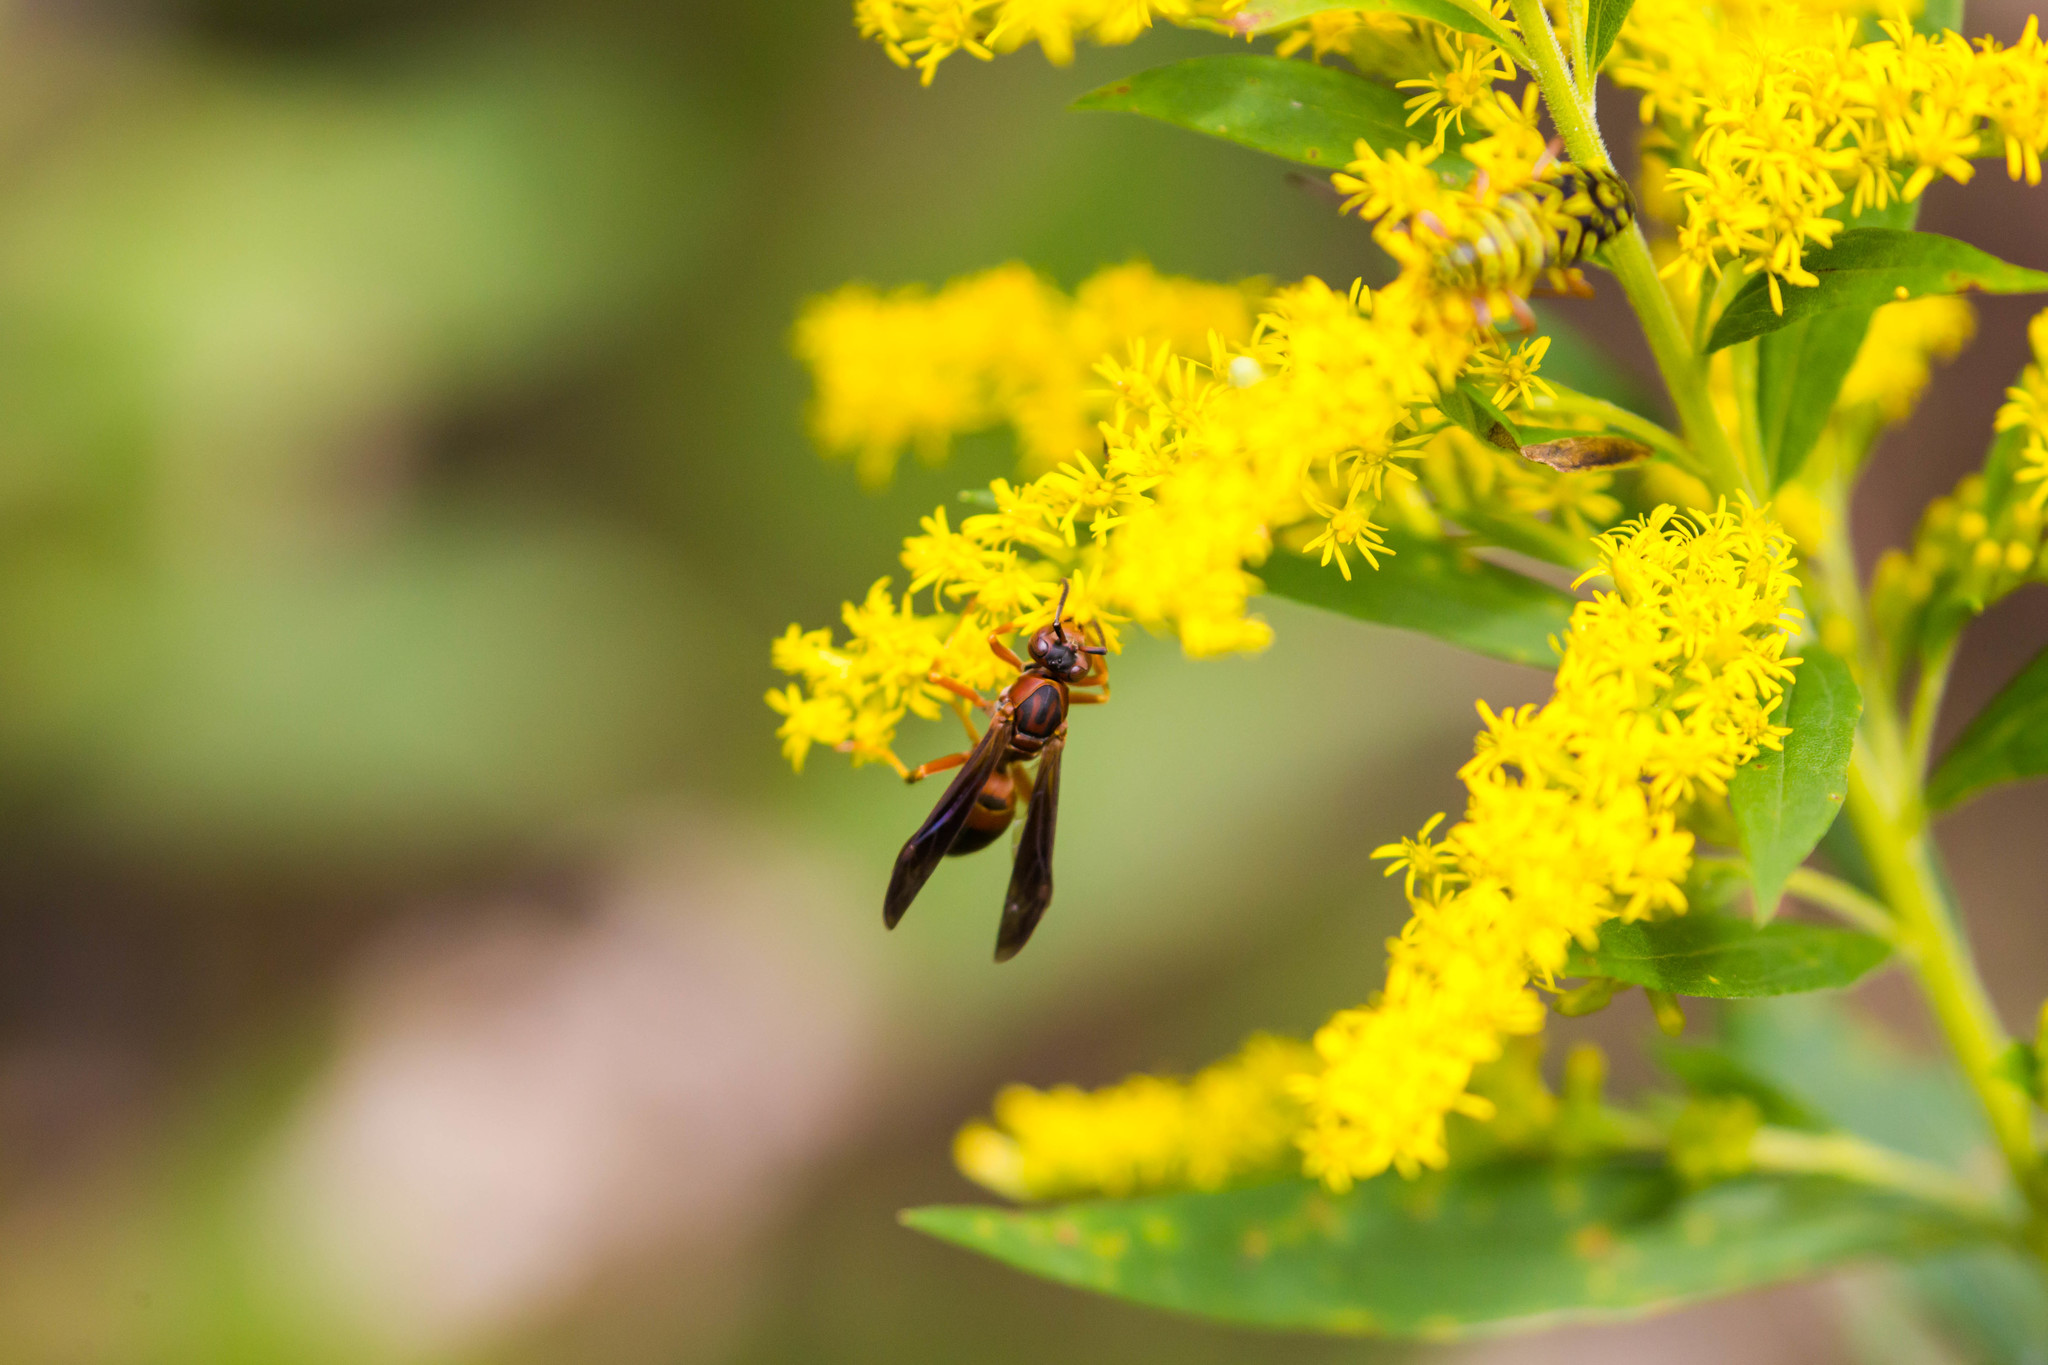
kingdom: Animalia
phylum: Arthropoda
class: Insecta
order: Hymenoptera
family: Eumenidae
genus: Polistes
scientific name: Polistes hirsuticornis
